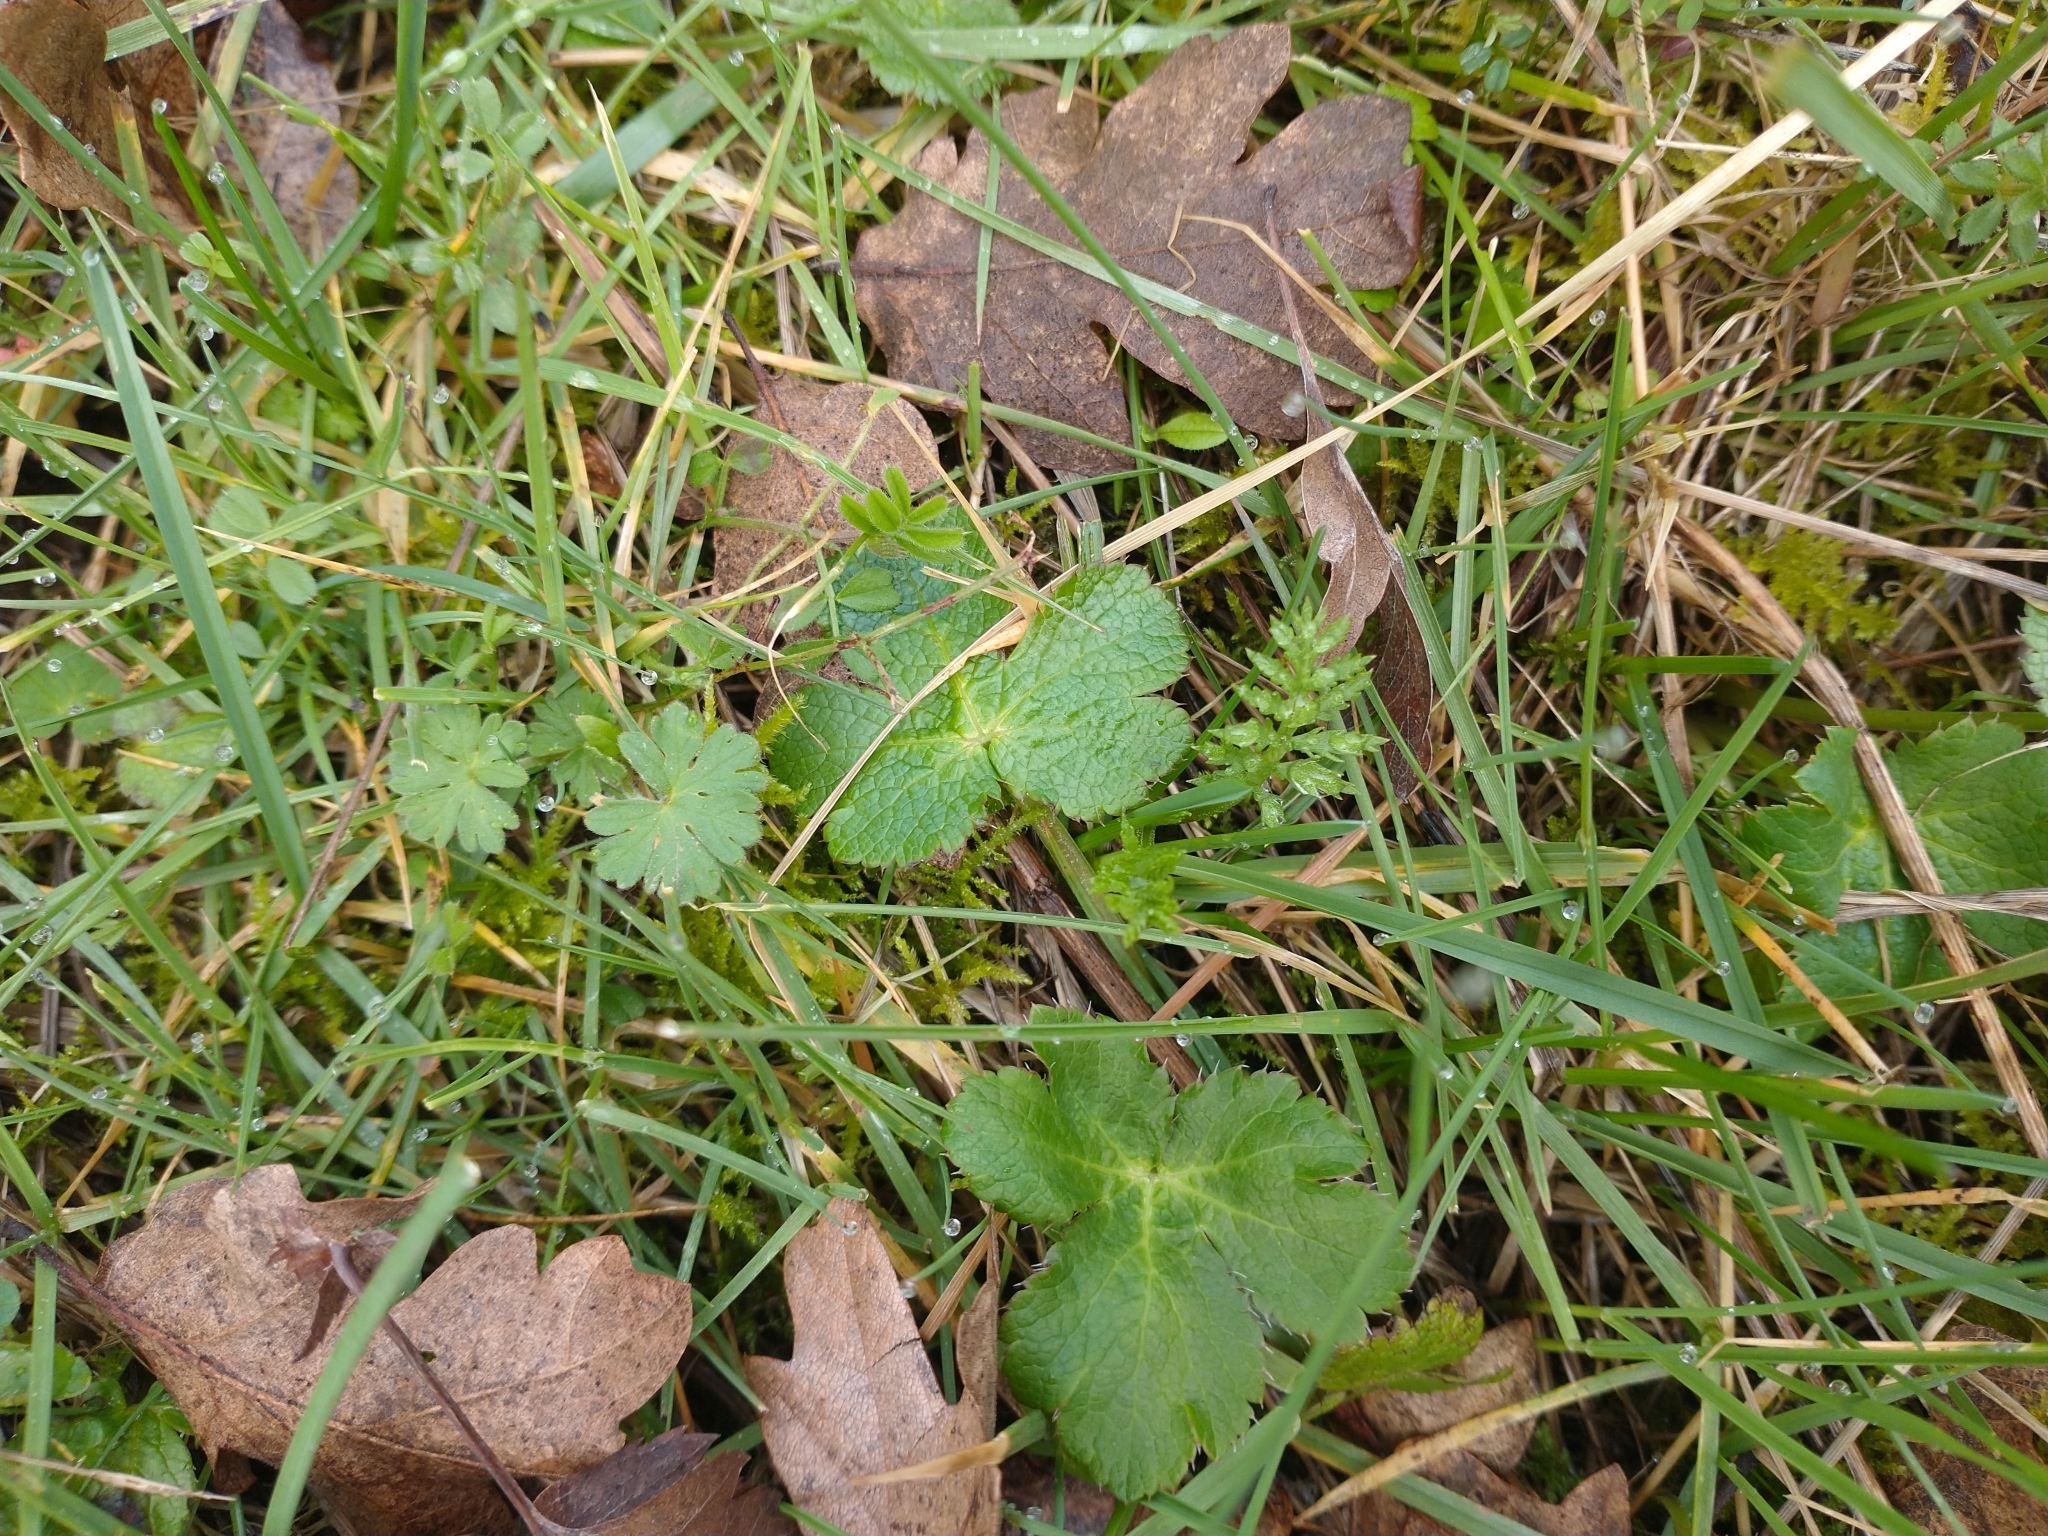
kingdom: Plantae
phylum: Tracheophyta
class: Magnoliopsida
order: Apiales
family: Apiaceae
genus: Sanicula
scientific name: Sanicula crassicaulis
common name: Western snakeroot
